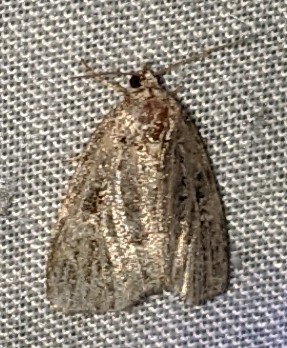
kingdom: Animalia
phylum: Arthropoda
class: Insecta
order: Lepidoptera
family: Noctuidae
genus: Protodeltote
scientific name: Protodeltote muscosula
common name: Large mossy glyph
